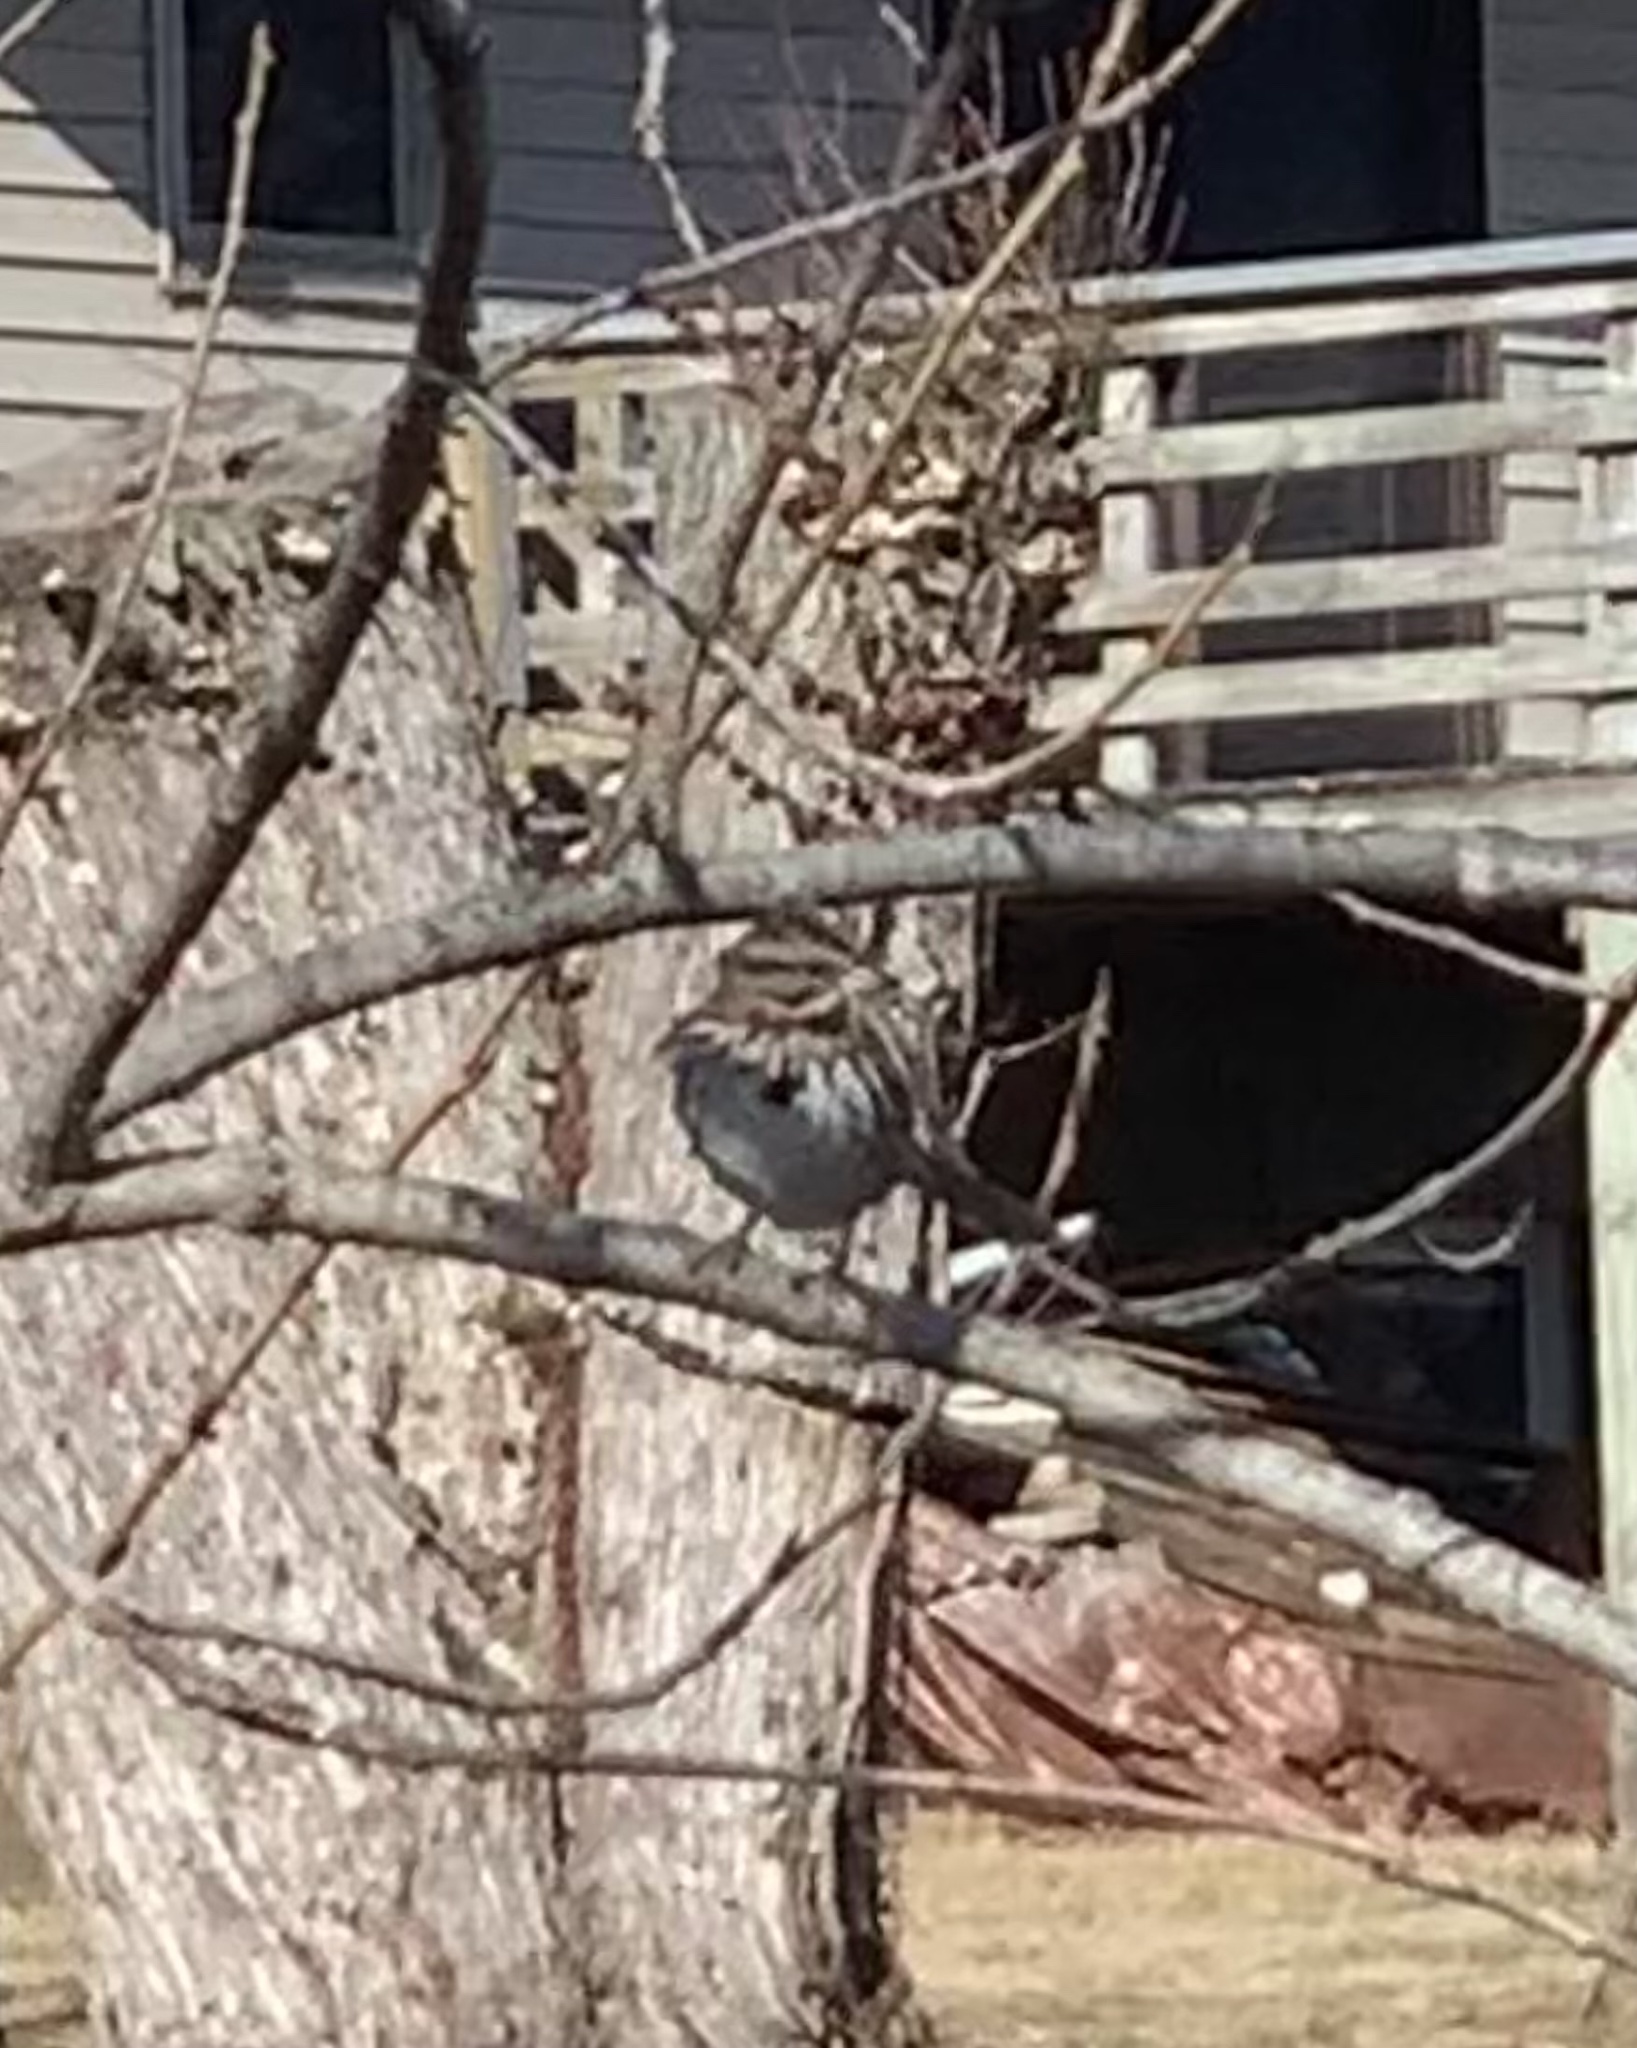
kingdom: Animalia
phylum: Chordata
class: Aves
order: Passeriformes
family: Passerellidae
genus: Melospiza
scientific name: Melospiza melodia
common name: Song sparrow
